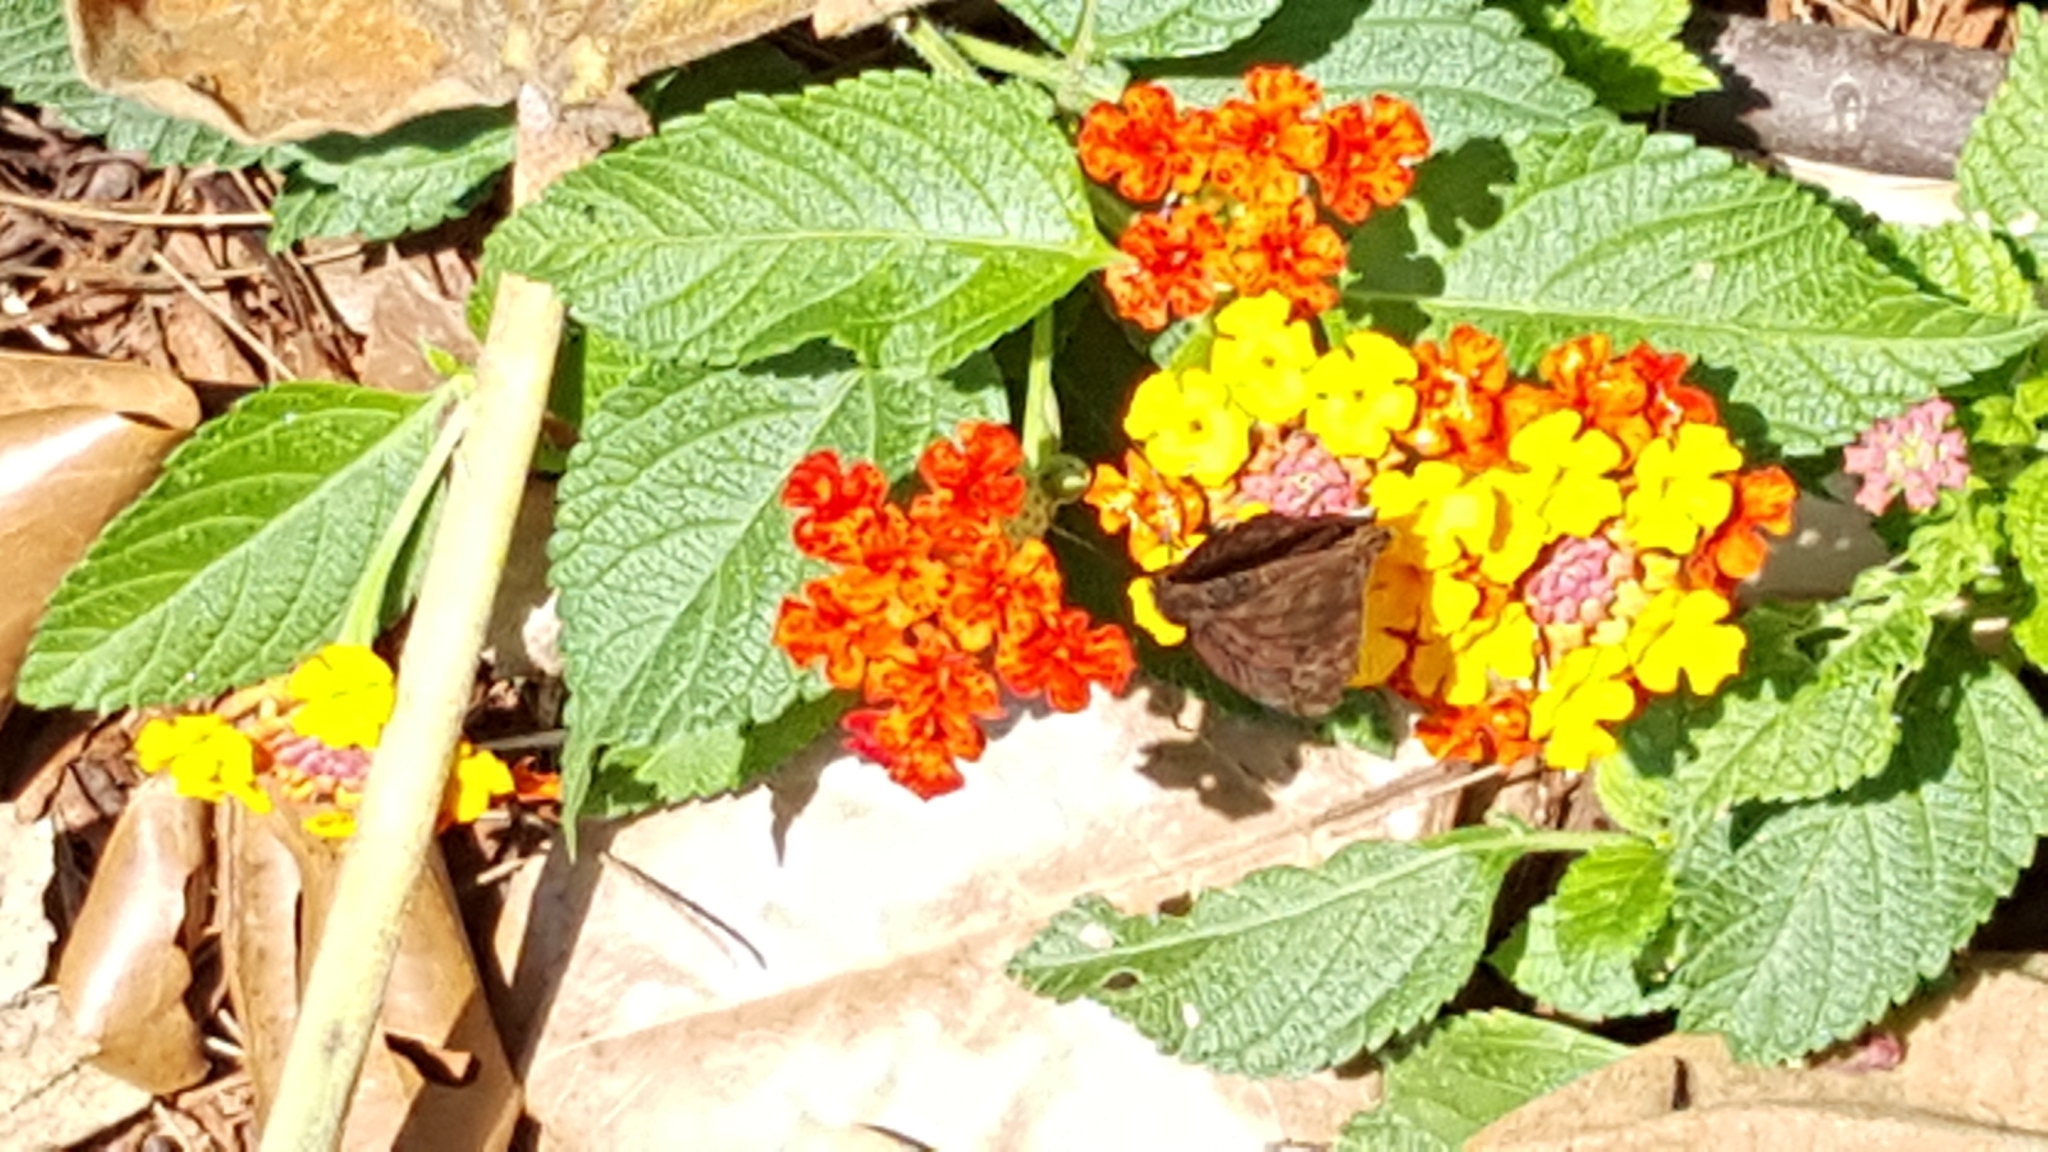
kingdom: Animalia
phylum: Arthropoda
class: Insecta
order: Lepidoptera
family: Hesperiidae
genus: Achlyodes
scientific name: Achlyodes busirus
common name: Giant sicklewing
